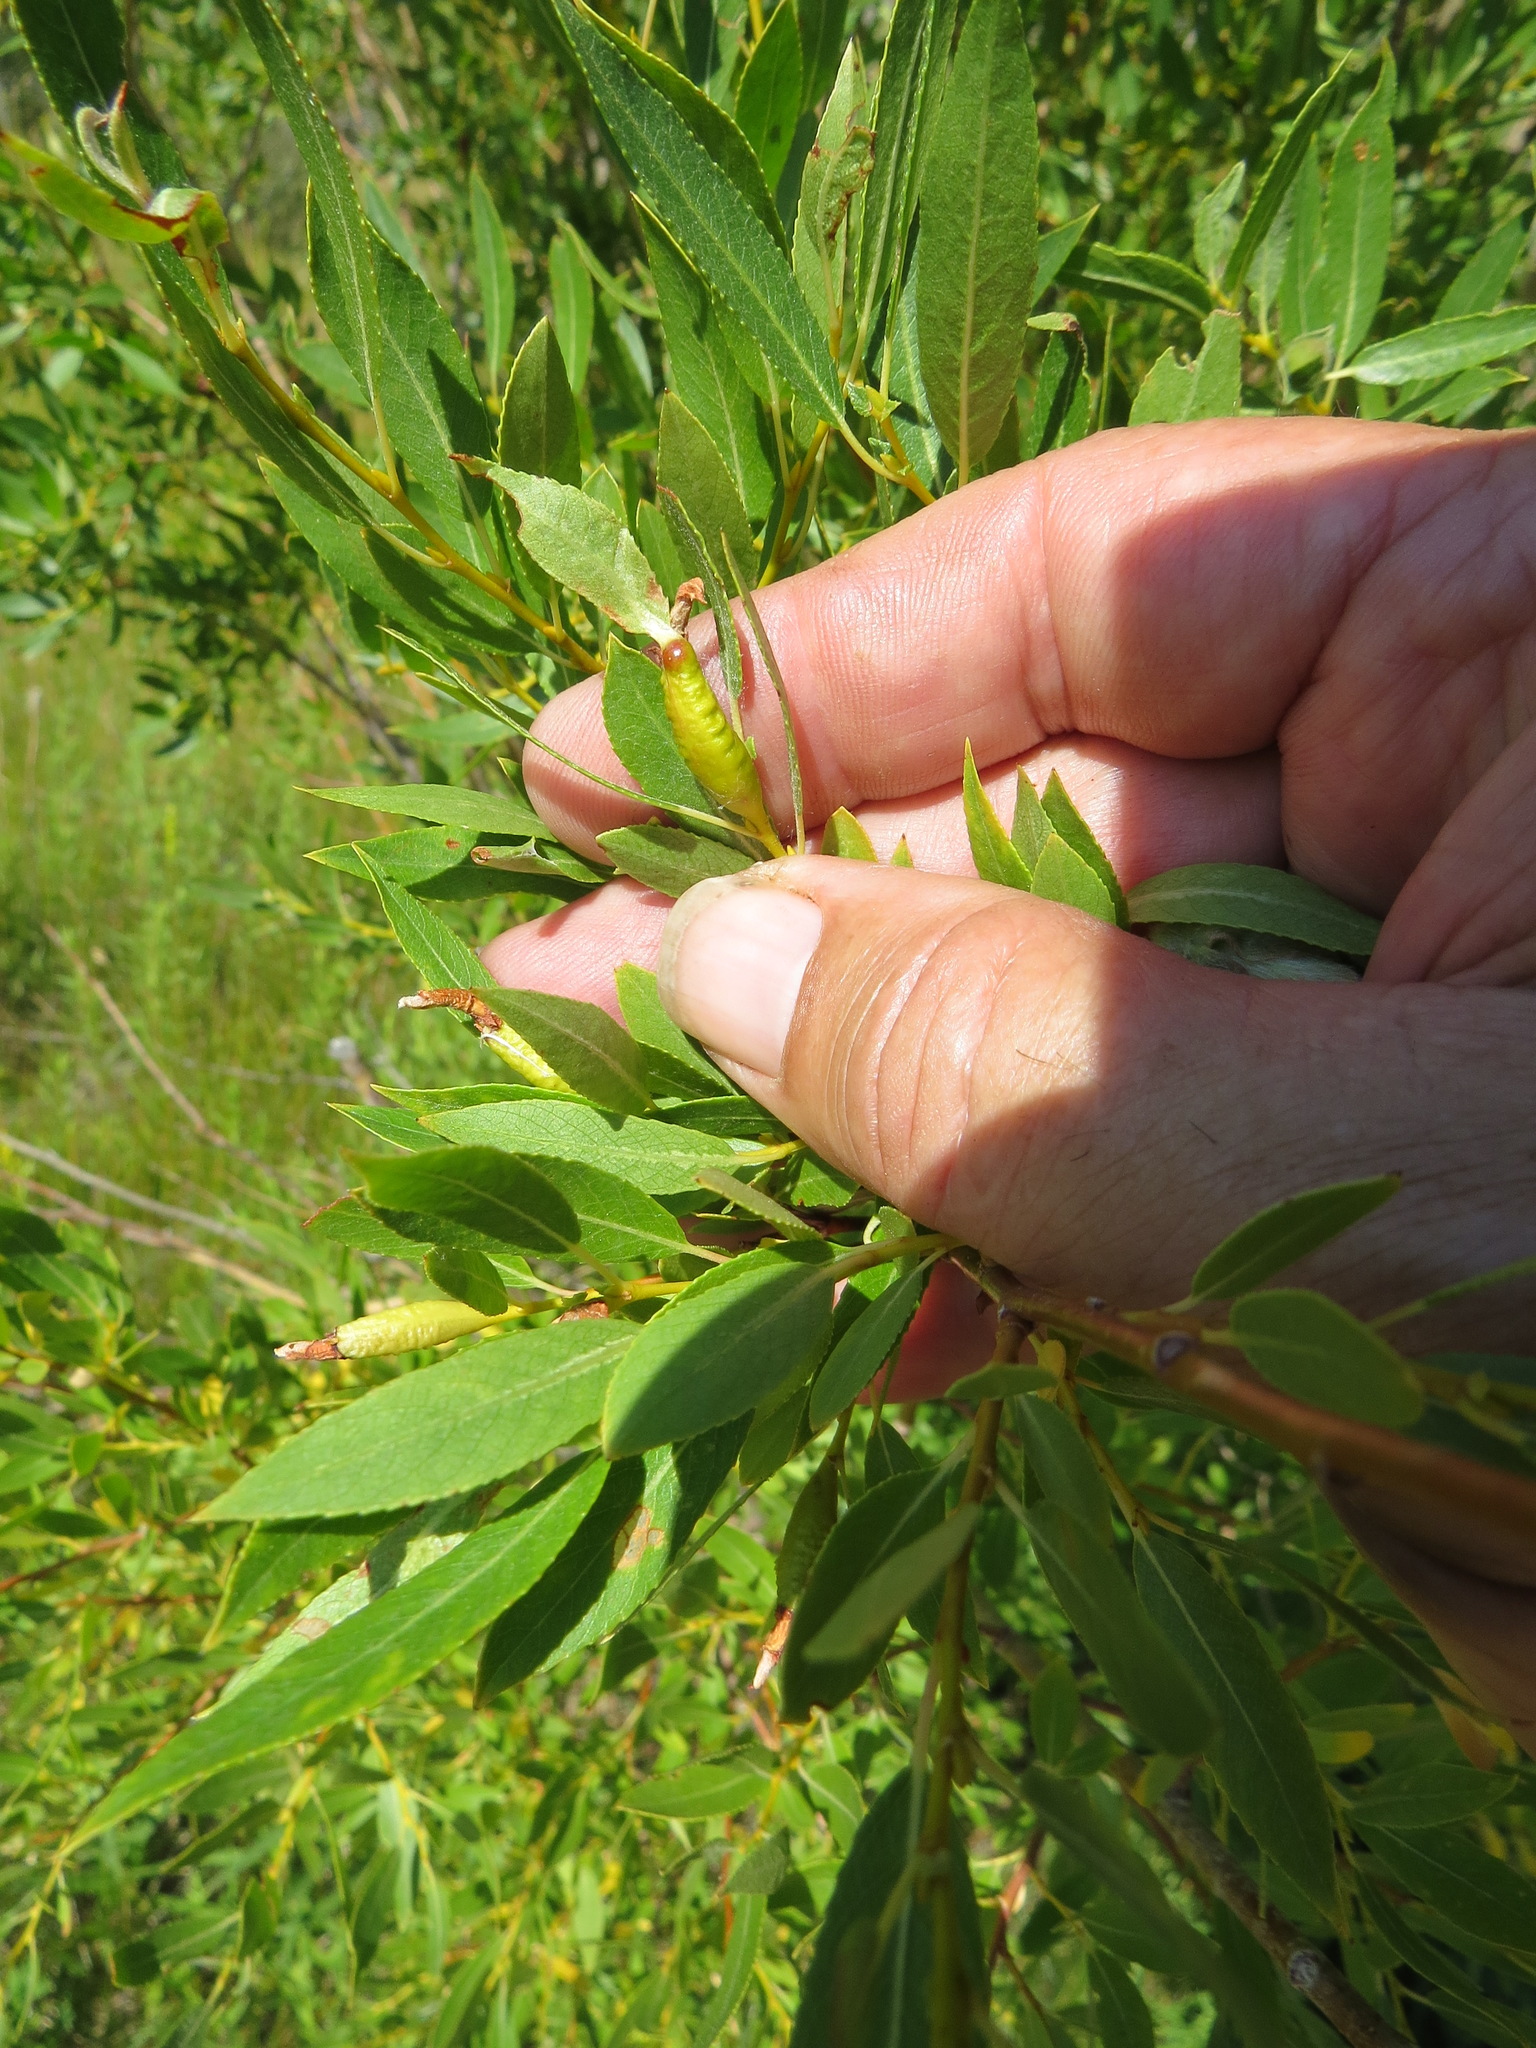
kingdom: Animalia
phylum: Arthropoda
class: Insecta
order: Diptera
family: Cecidomyiidae
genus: Thecodiplosis
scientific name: Thecodiplosis pinirigidae
